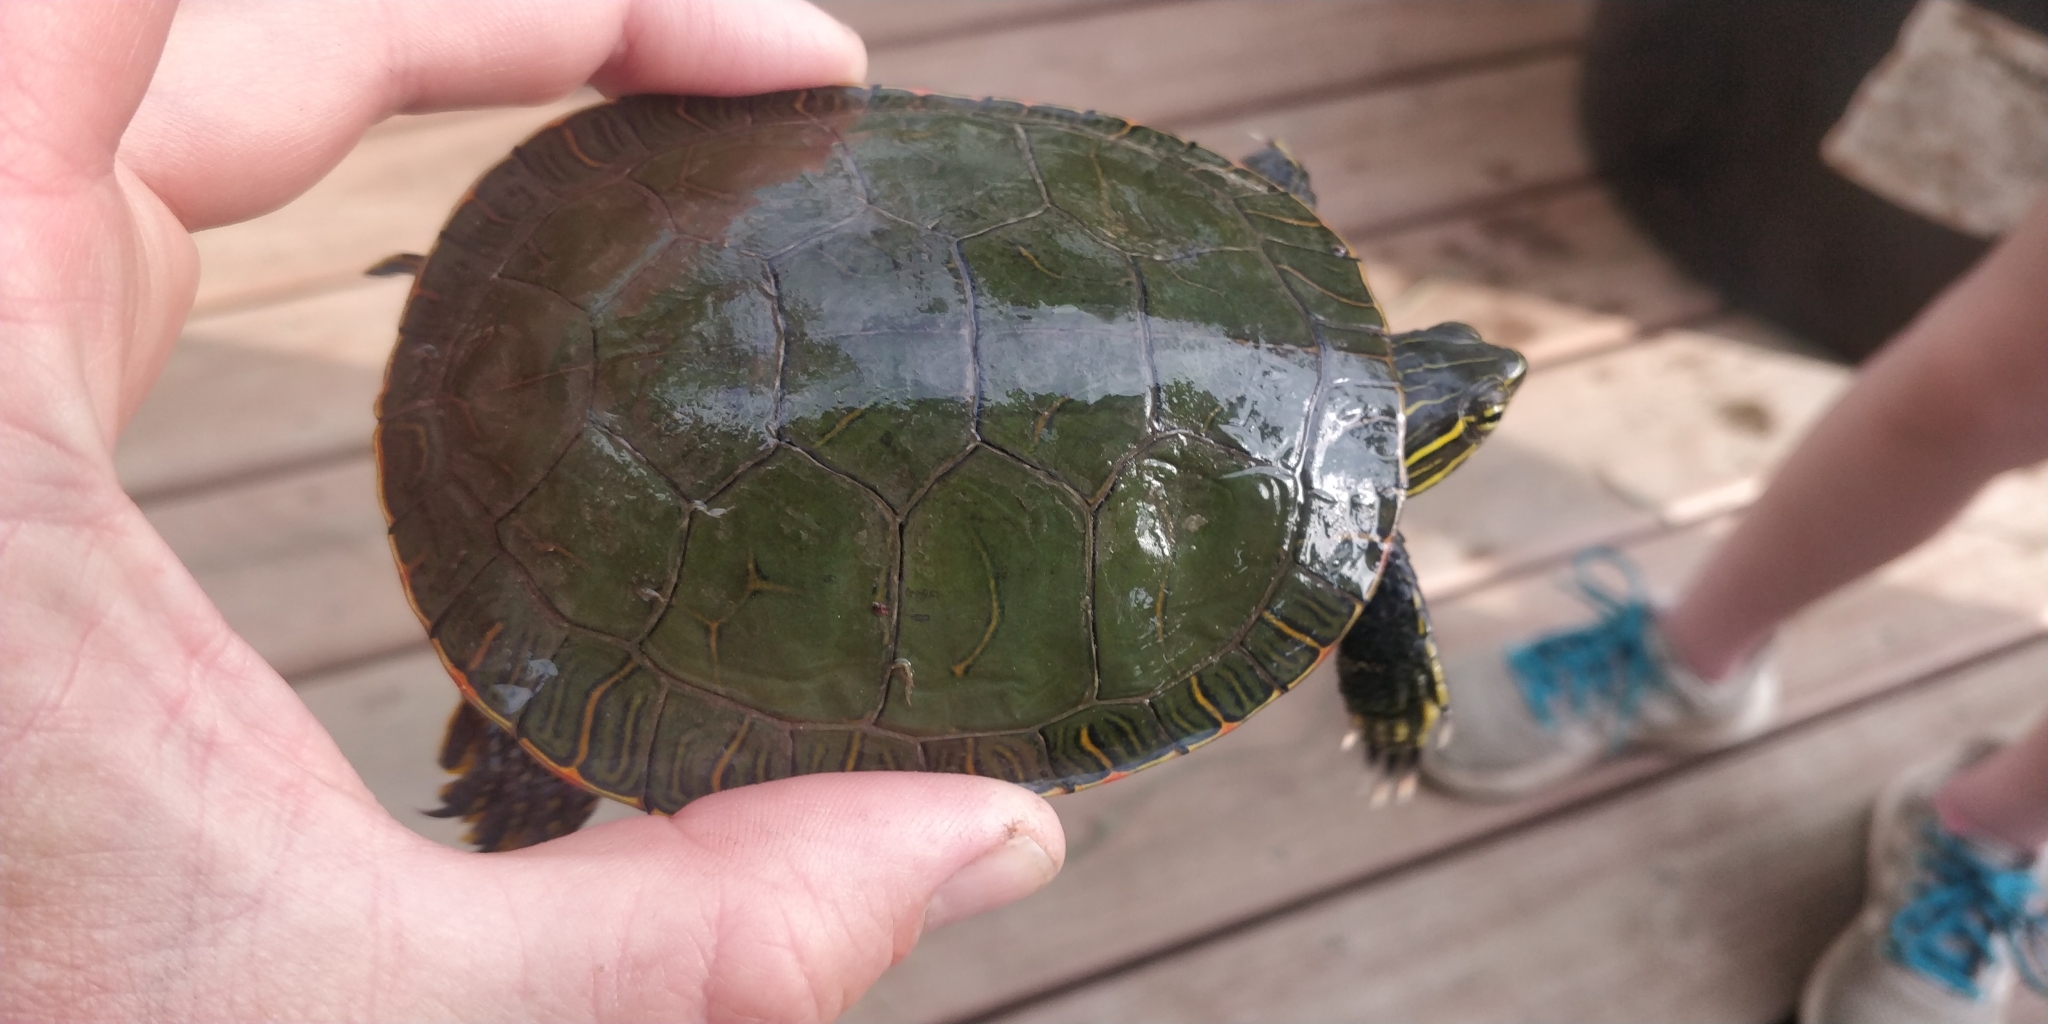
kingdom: Animalia
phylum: Chordata
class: Testudines
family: Emydidae
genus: Chrysemys
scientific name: Chrysemys picta
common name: Painted turtle
